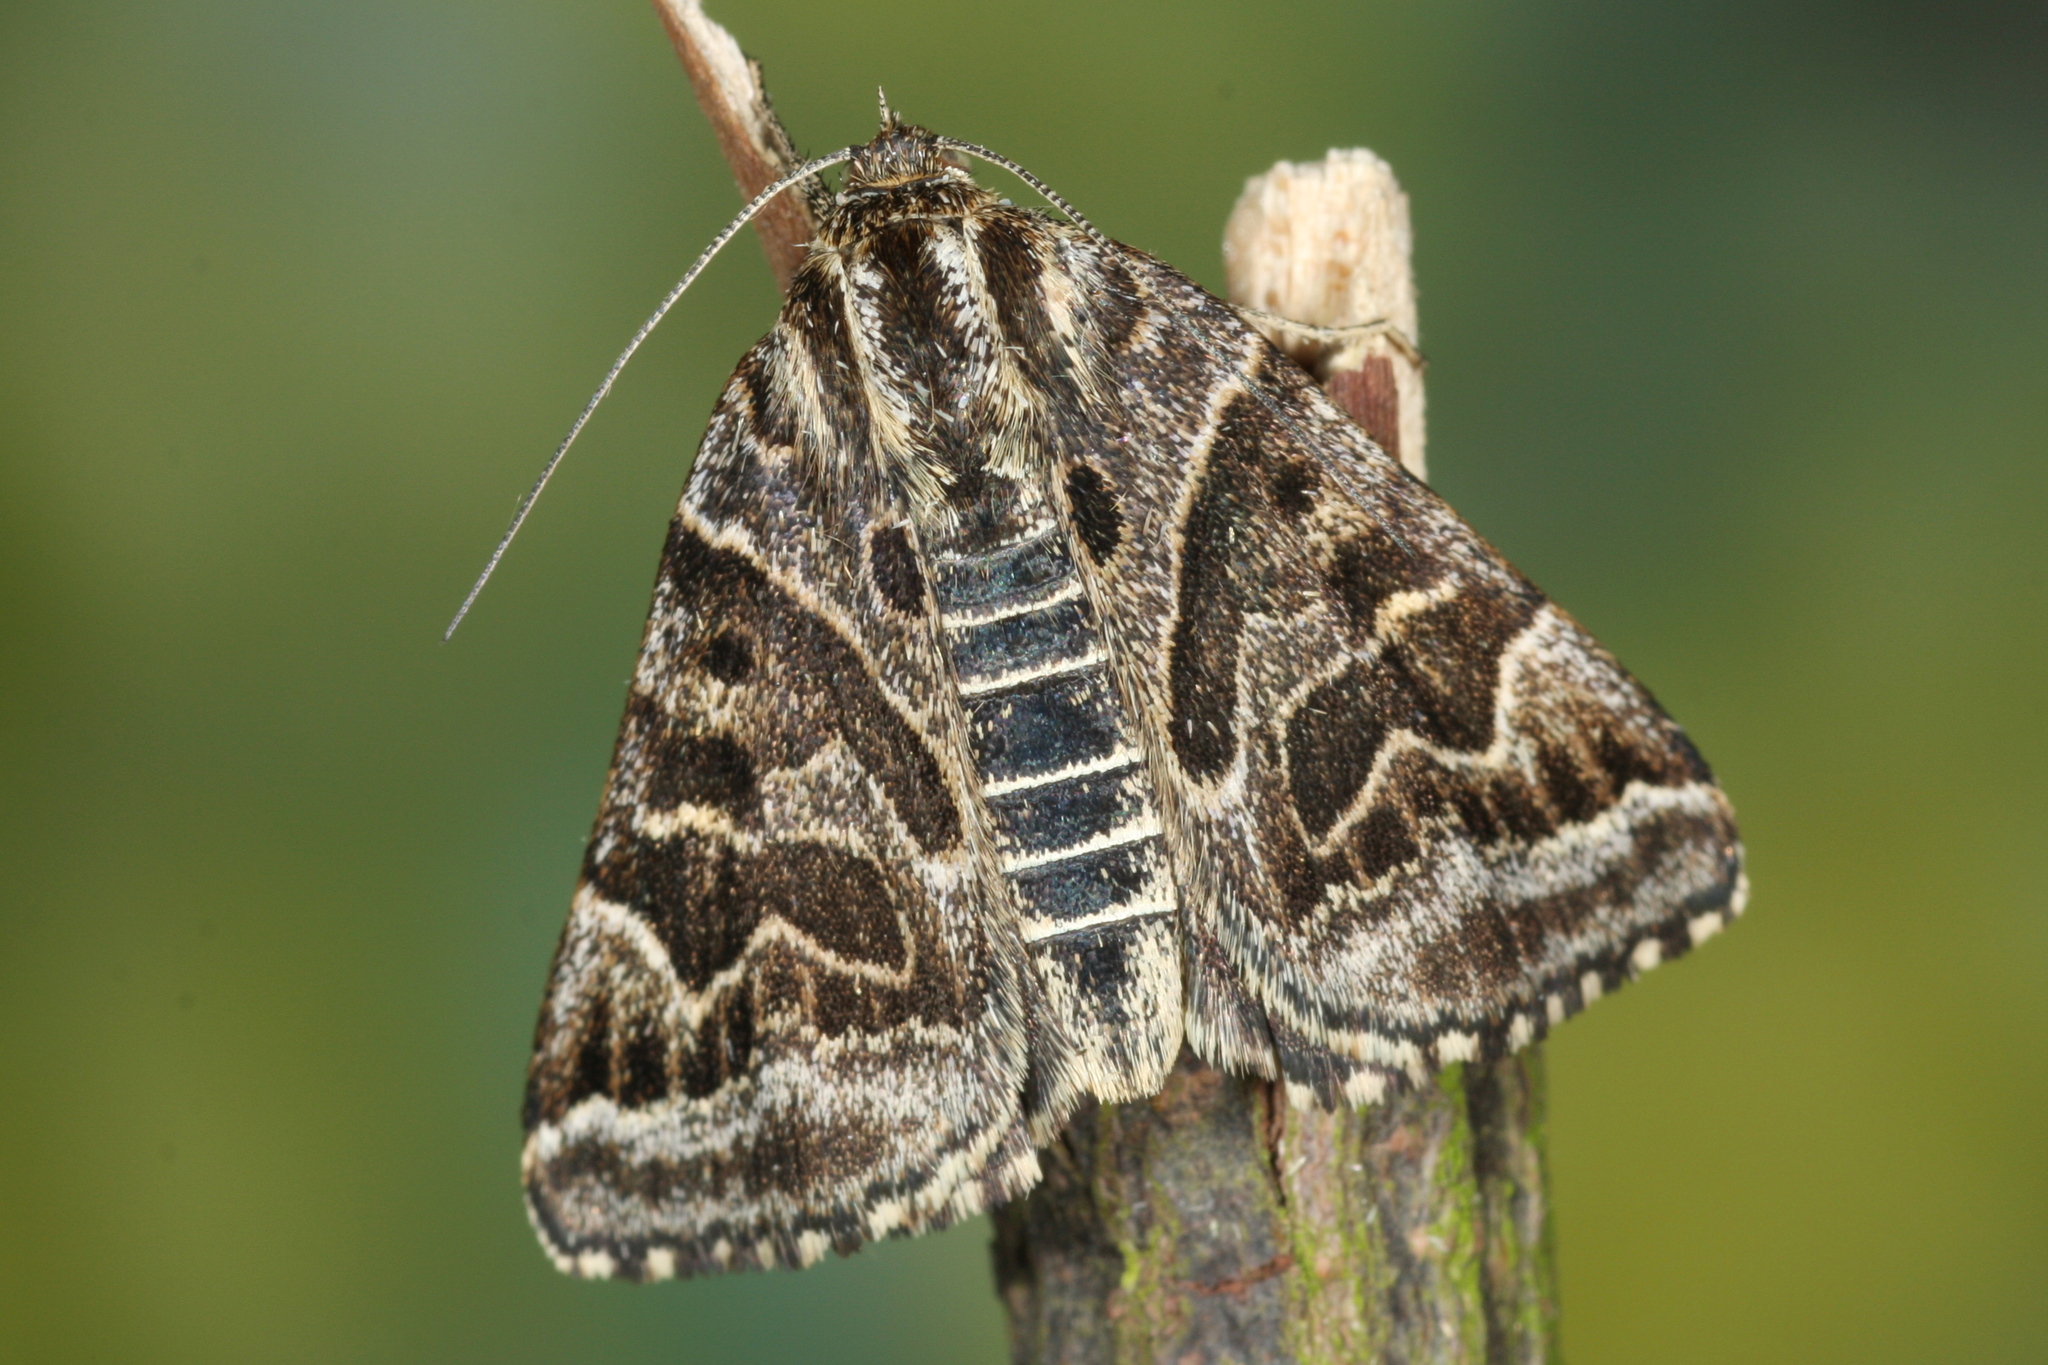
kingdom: Animalia
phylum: Arthropoda
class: Insecta
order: Lepidoptera
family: Erebidae
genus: Callistege
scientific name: Callistege mi
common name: Mother shipton
